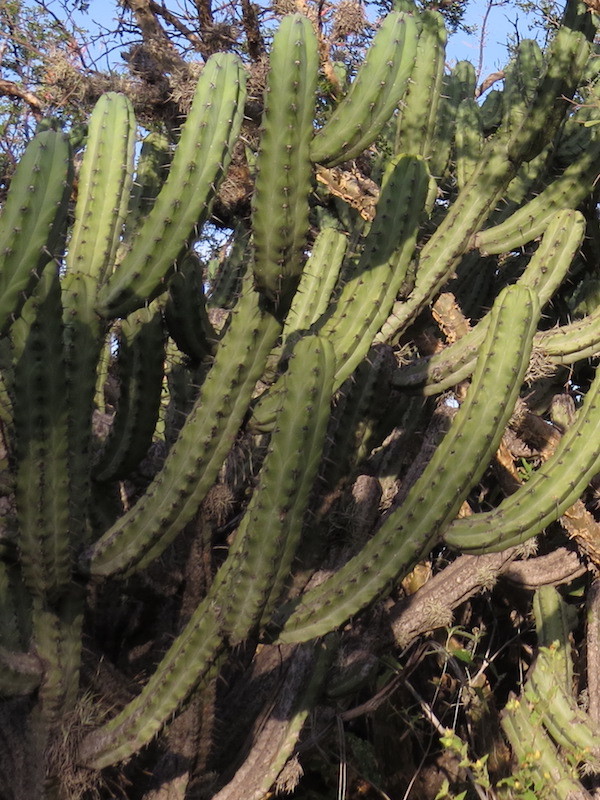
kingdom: Plantae
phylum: Tracheophyta
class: Magnoliopsida
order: Caryophyllales
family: Cactaceae
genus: Myrtillocactus
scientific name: Myrtillocactus geometrizans
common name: Bilberry cactus
